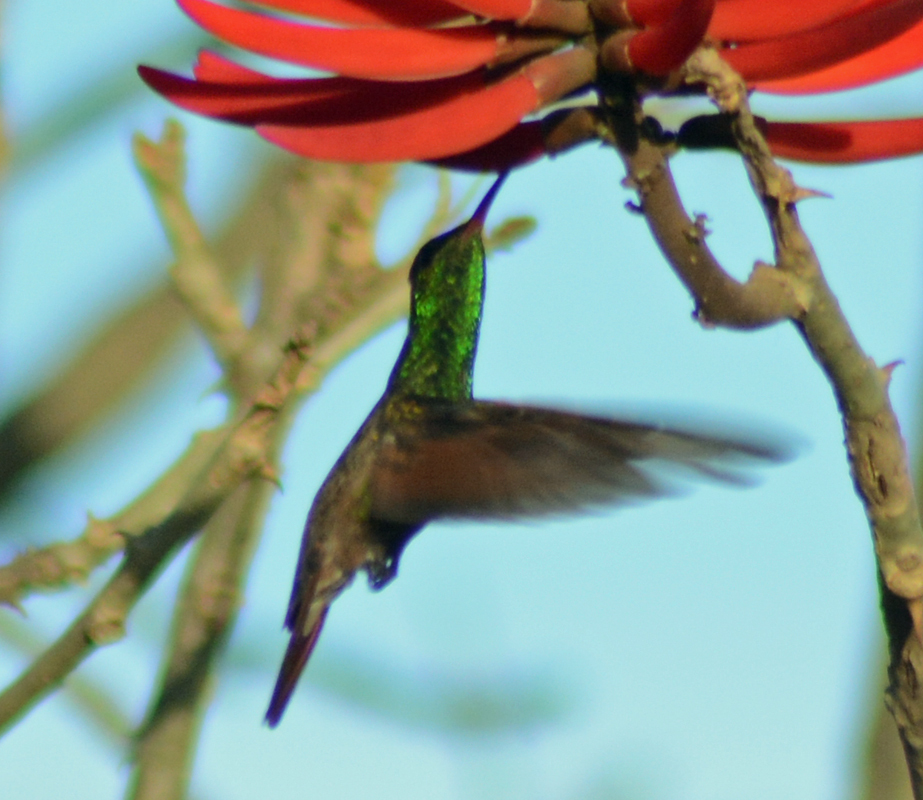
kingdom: Animalia
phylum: Chordata
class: Aves
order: Apodiformes
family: Trochilidae
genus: Saucerottia
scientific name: Saucerottia beryllina
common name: Berylline hummingbird
